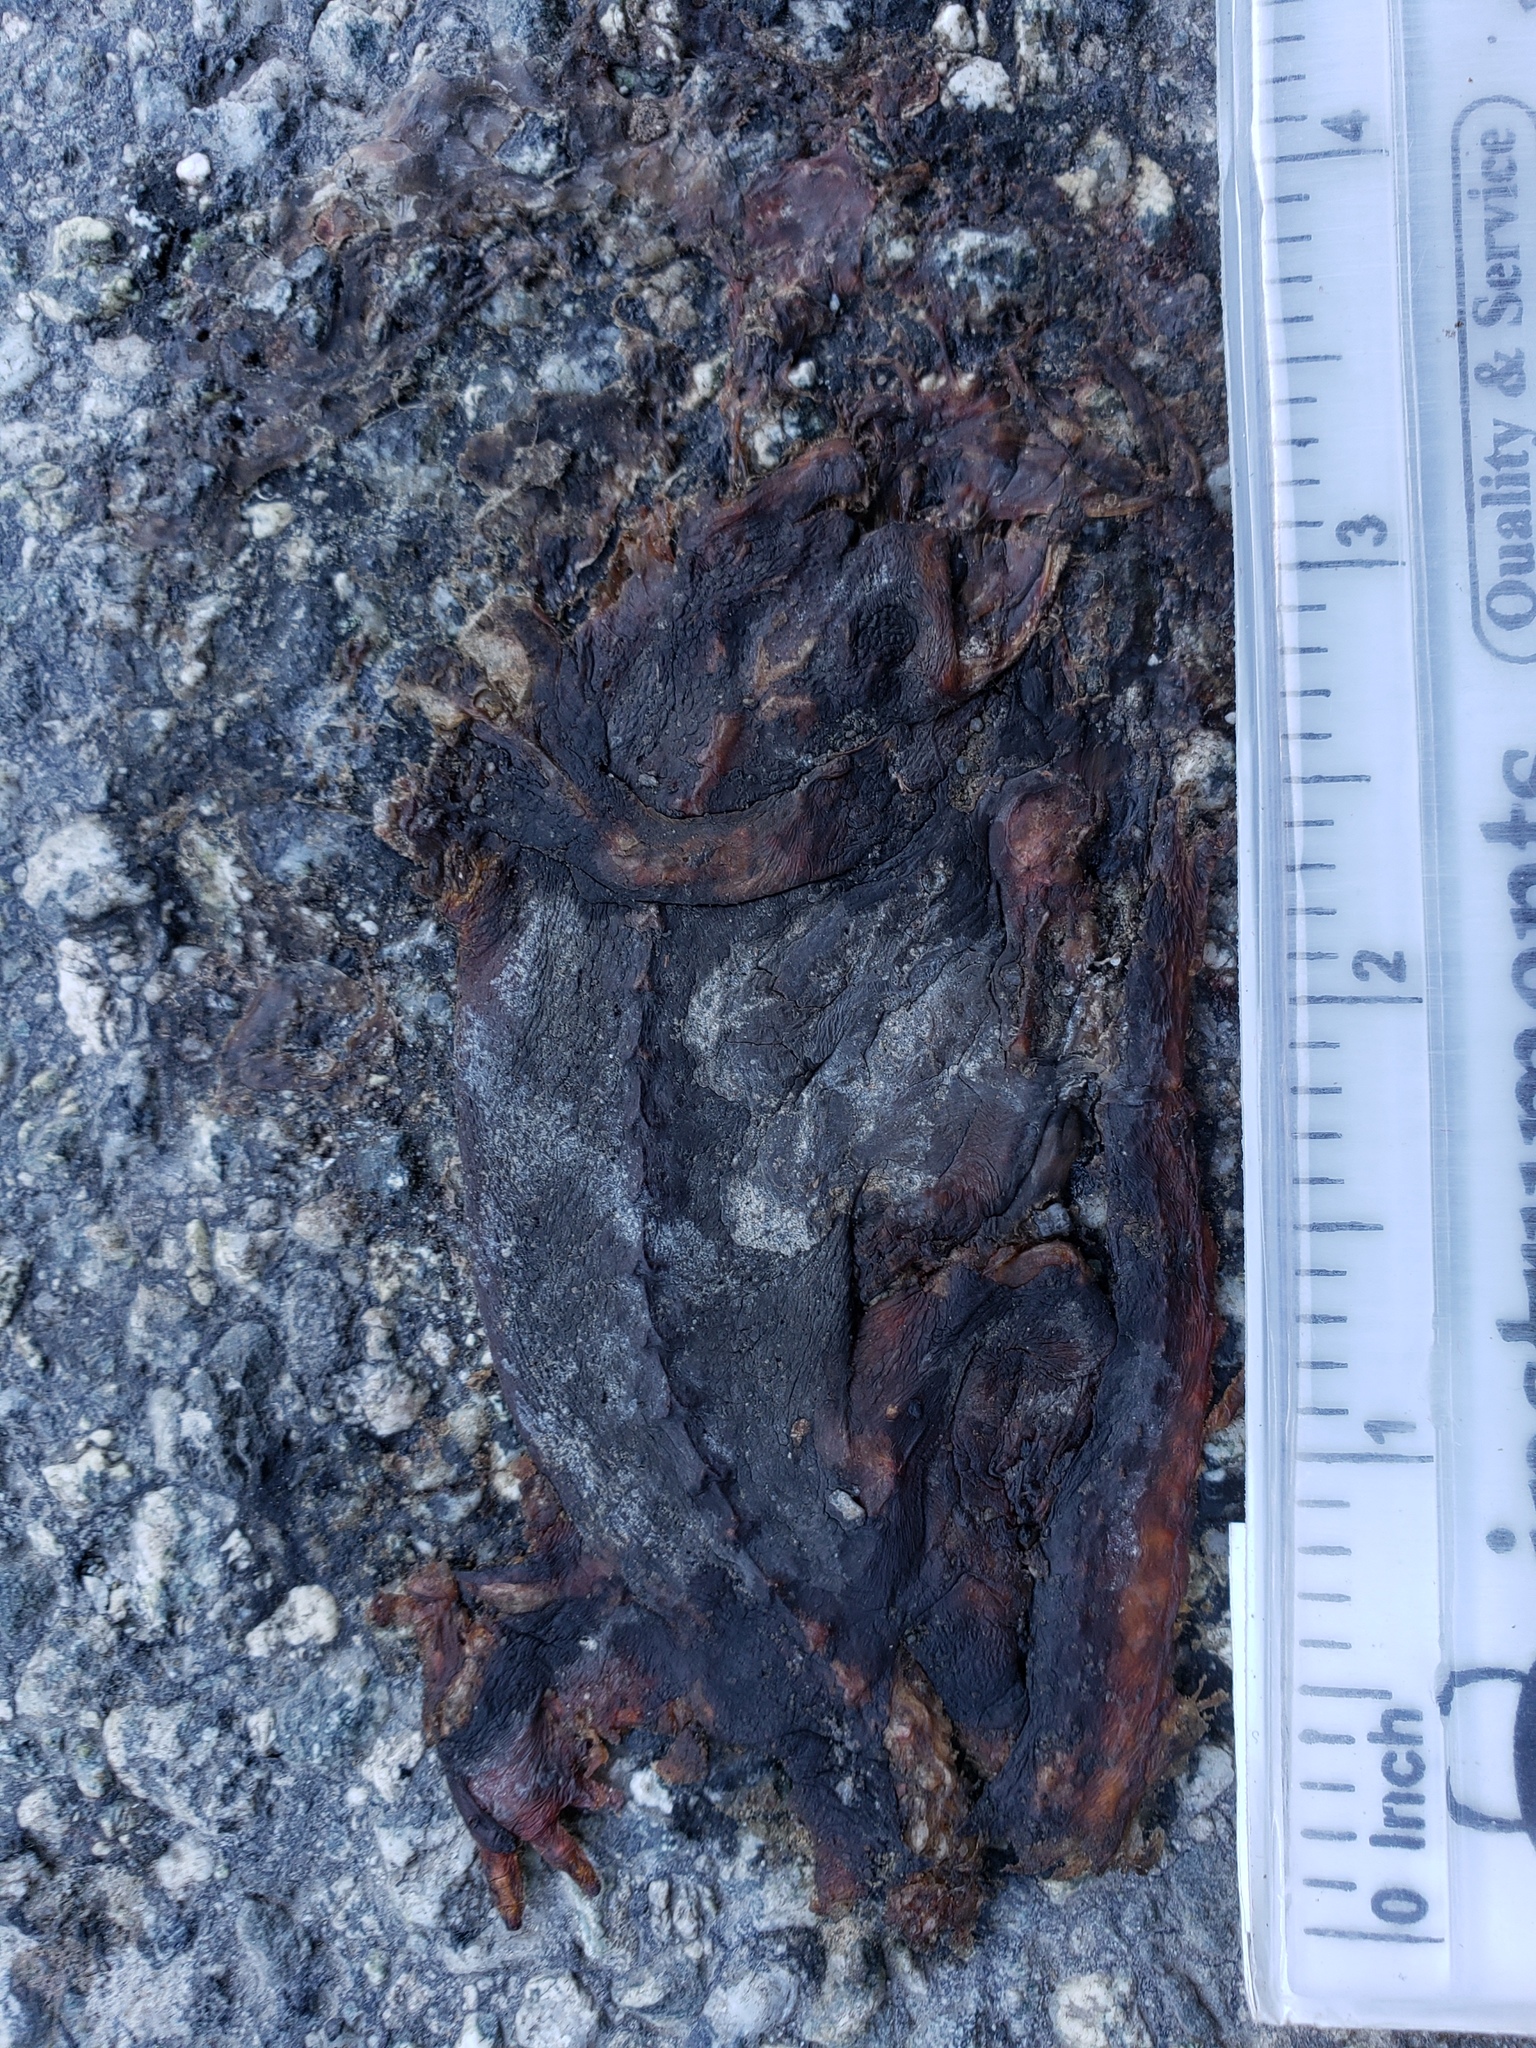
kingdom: Animalia
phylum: Chordata
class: Amphibia
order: Caudata
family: Salamandridae
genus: Taricha
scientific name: Taricha
